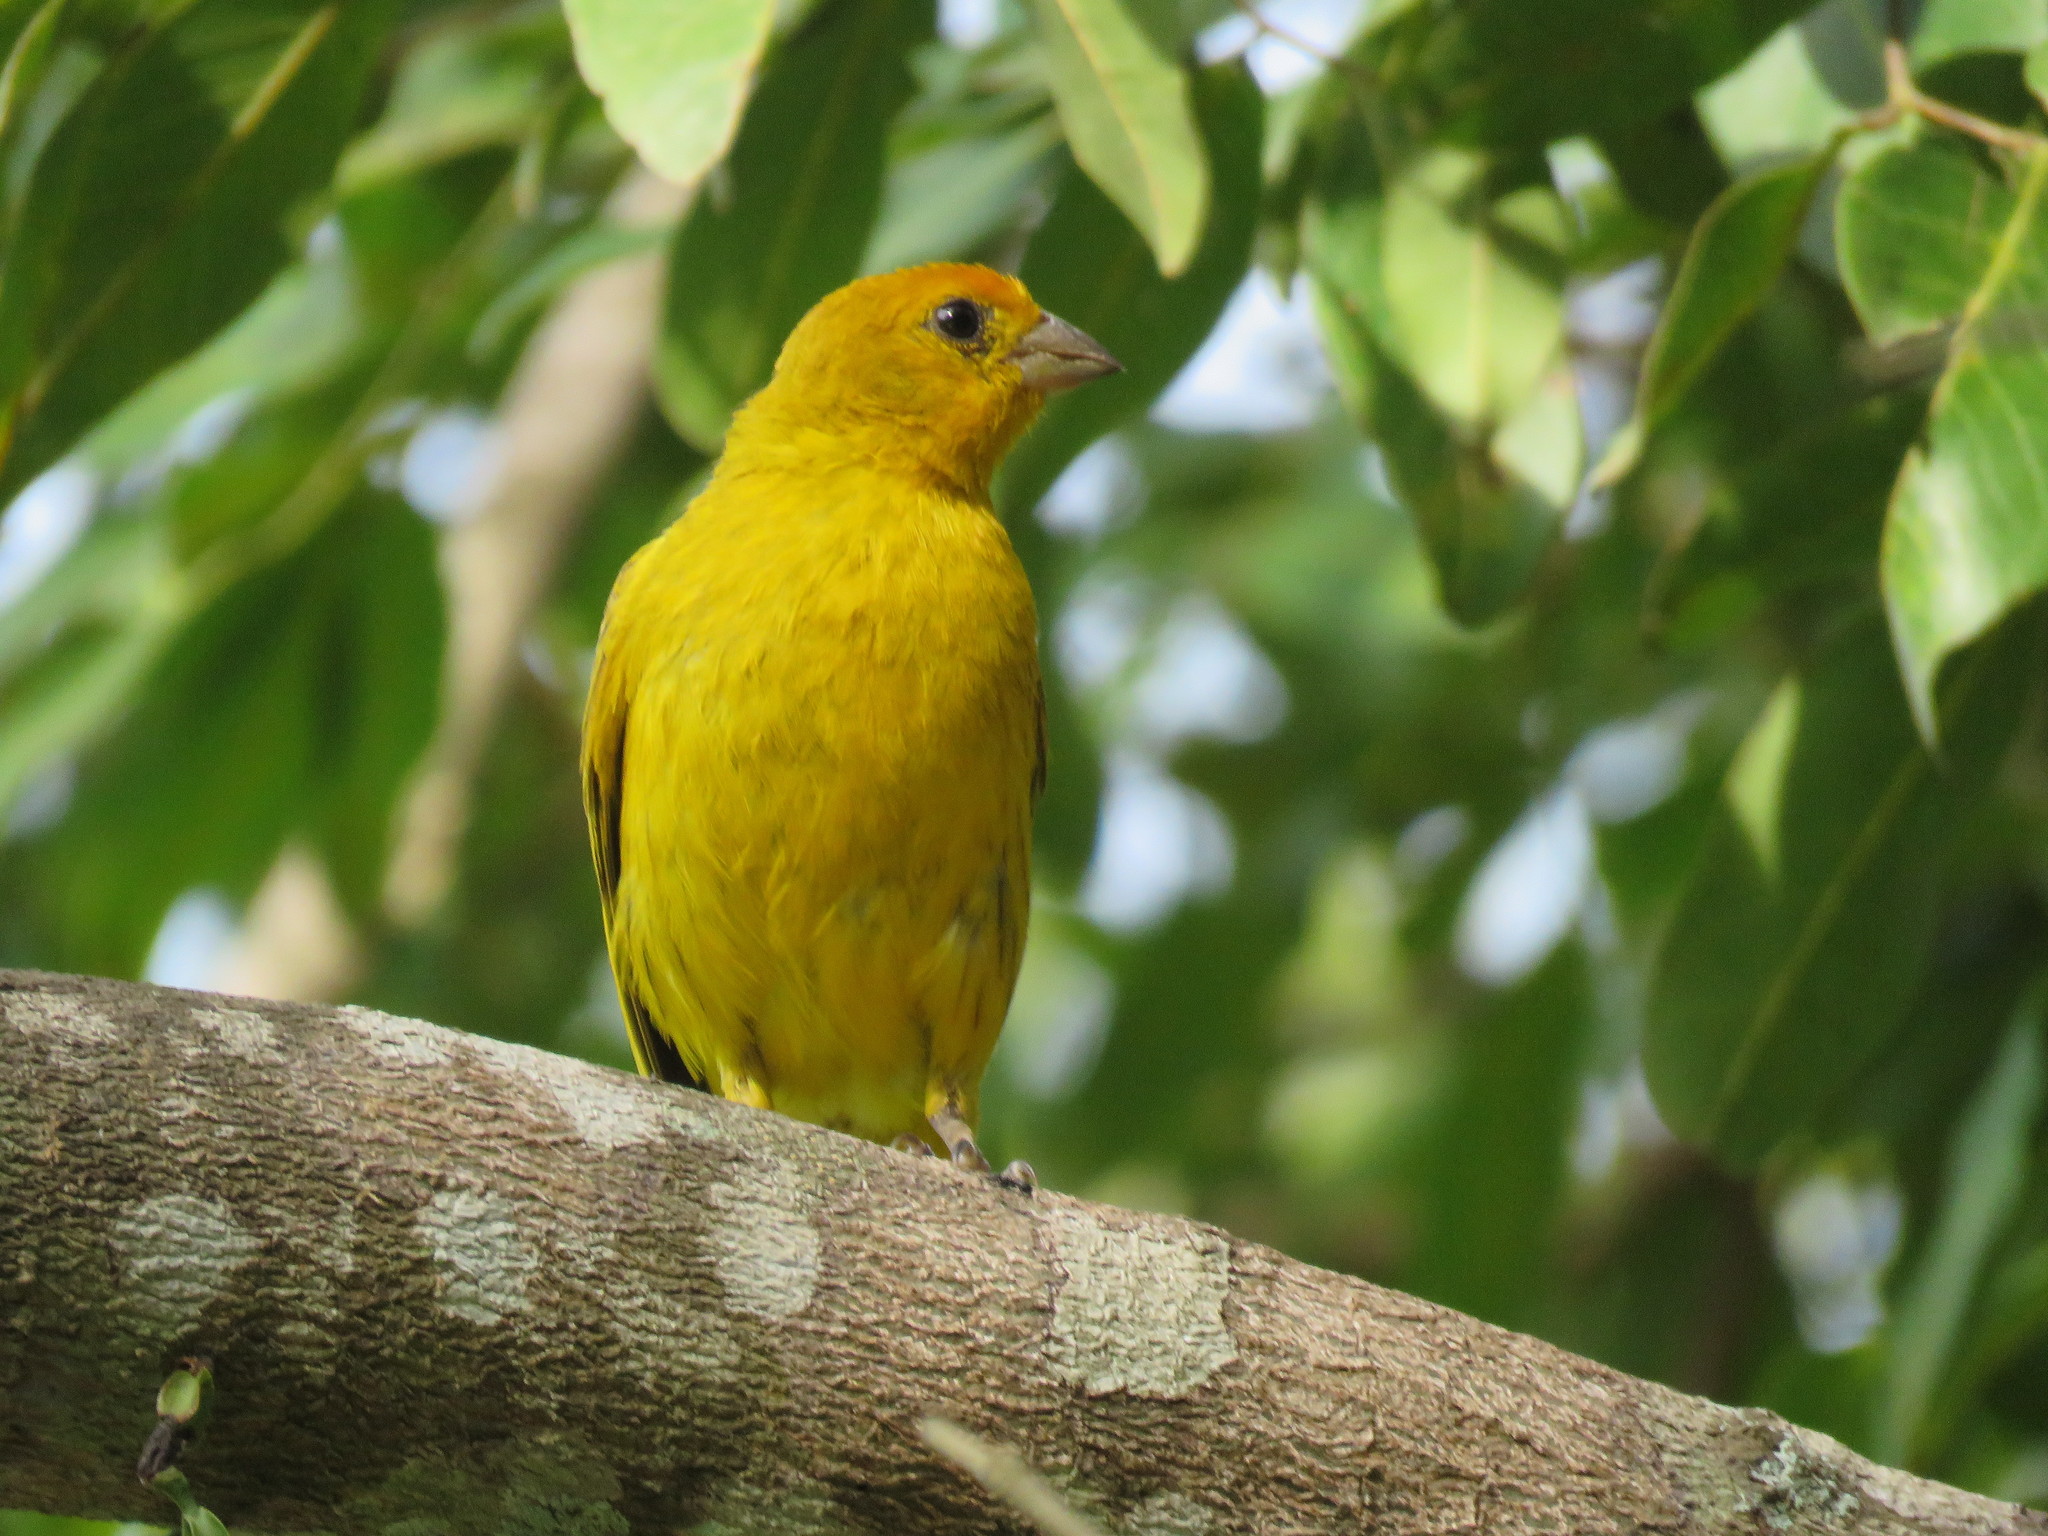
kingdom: Animalia
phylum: Chordata
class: Aves
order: Passeriformes
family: Thraupidae
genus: Sicalis
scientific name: Sicalis flaveola
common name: Saffron finch
